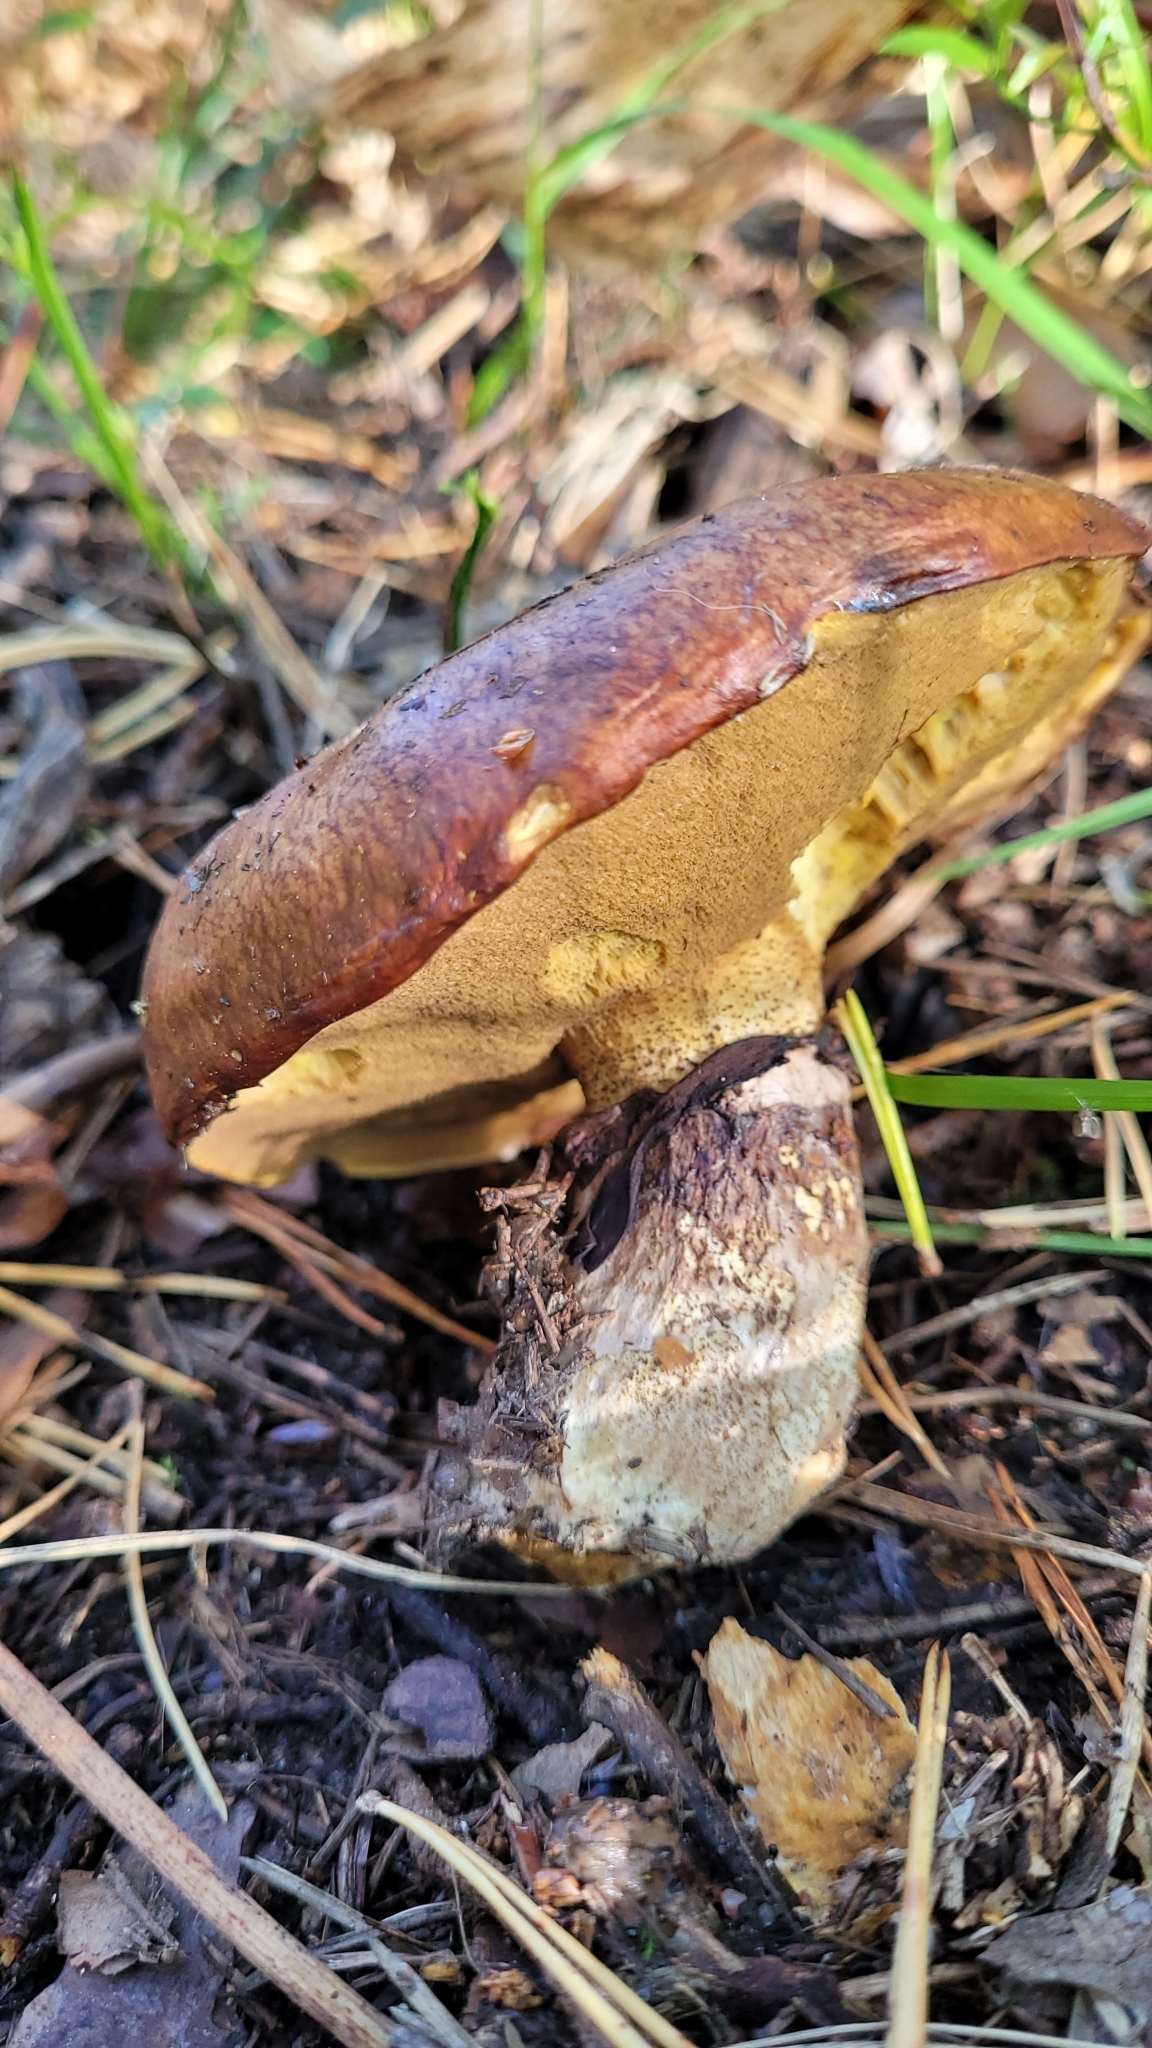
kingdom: Fungi
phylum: Basidiomycota
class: Agaricomycetes
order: Boletales
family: Suillaceae
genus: Suillus
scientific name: Suillus luteus
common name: Slippery jack
